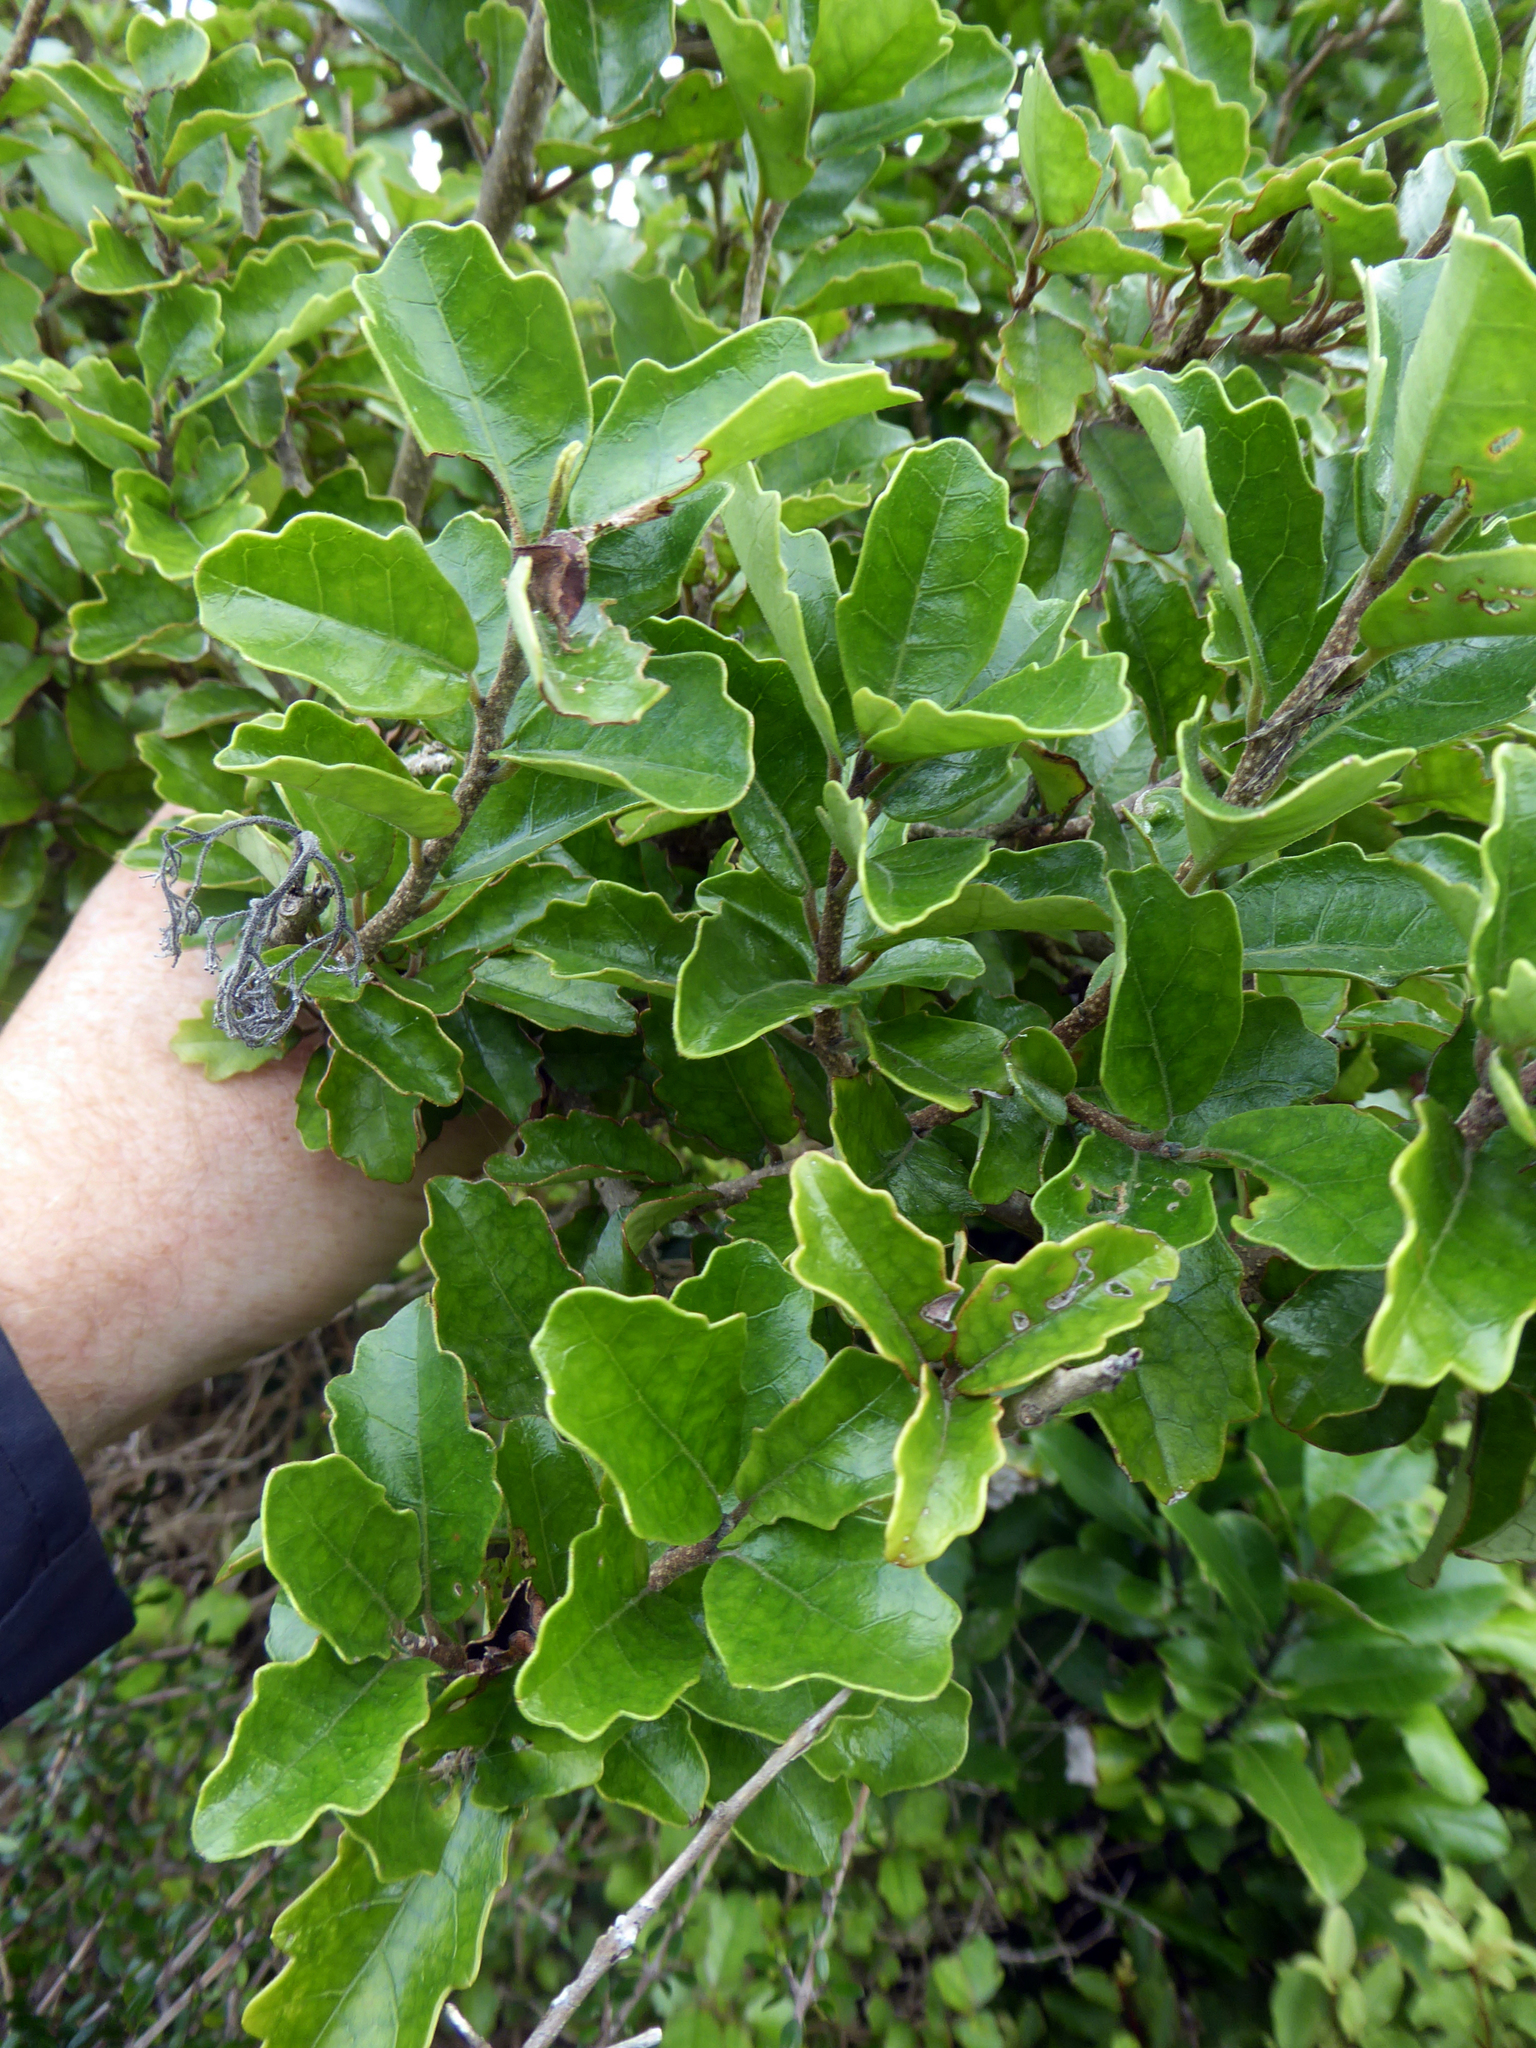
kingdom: Plantae
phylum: Tracheophyta
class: Magnoliopsida
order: Apiales
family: Pennantiaceae
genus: Pennantia
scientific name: Pennantia corymbosa
